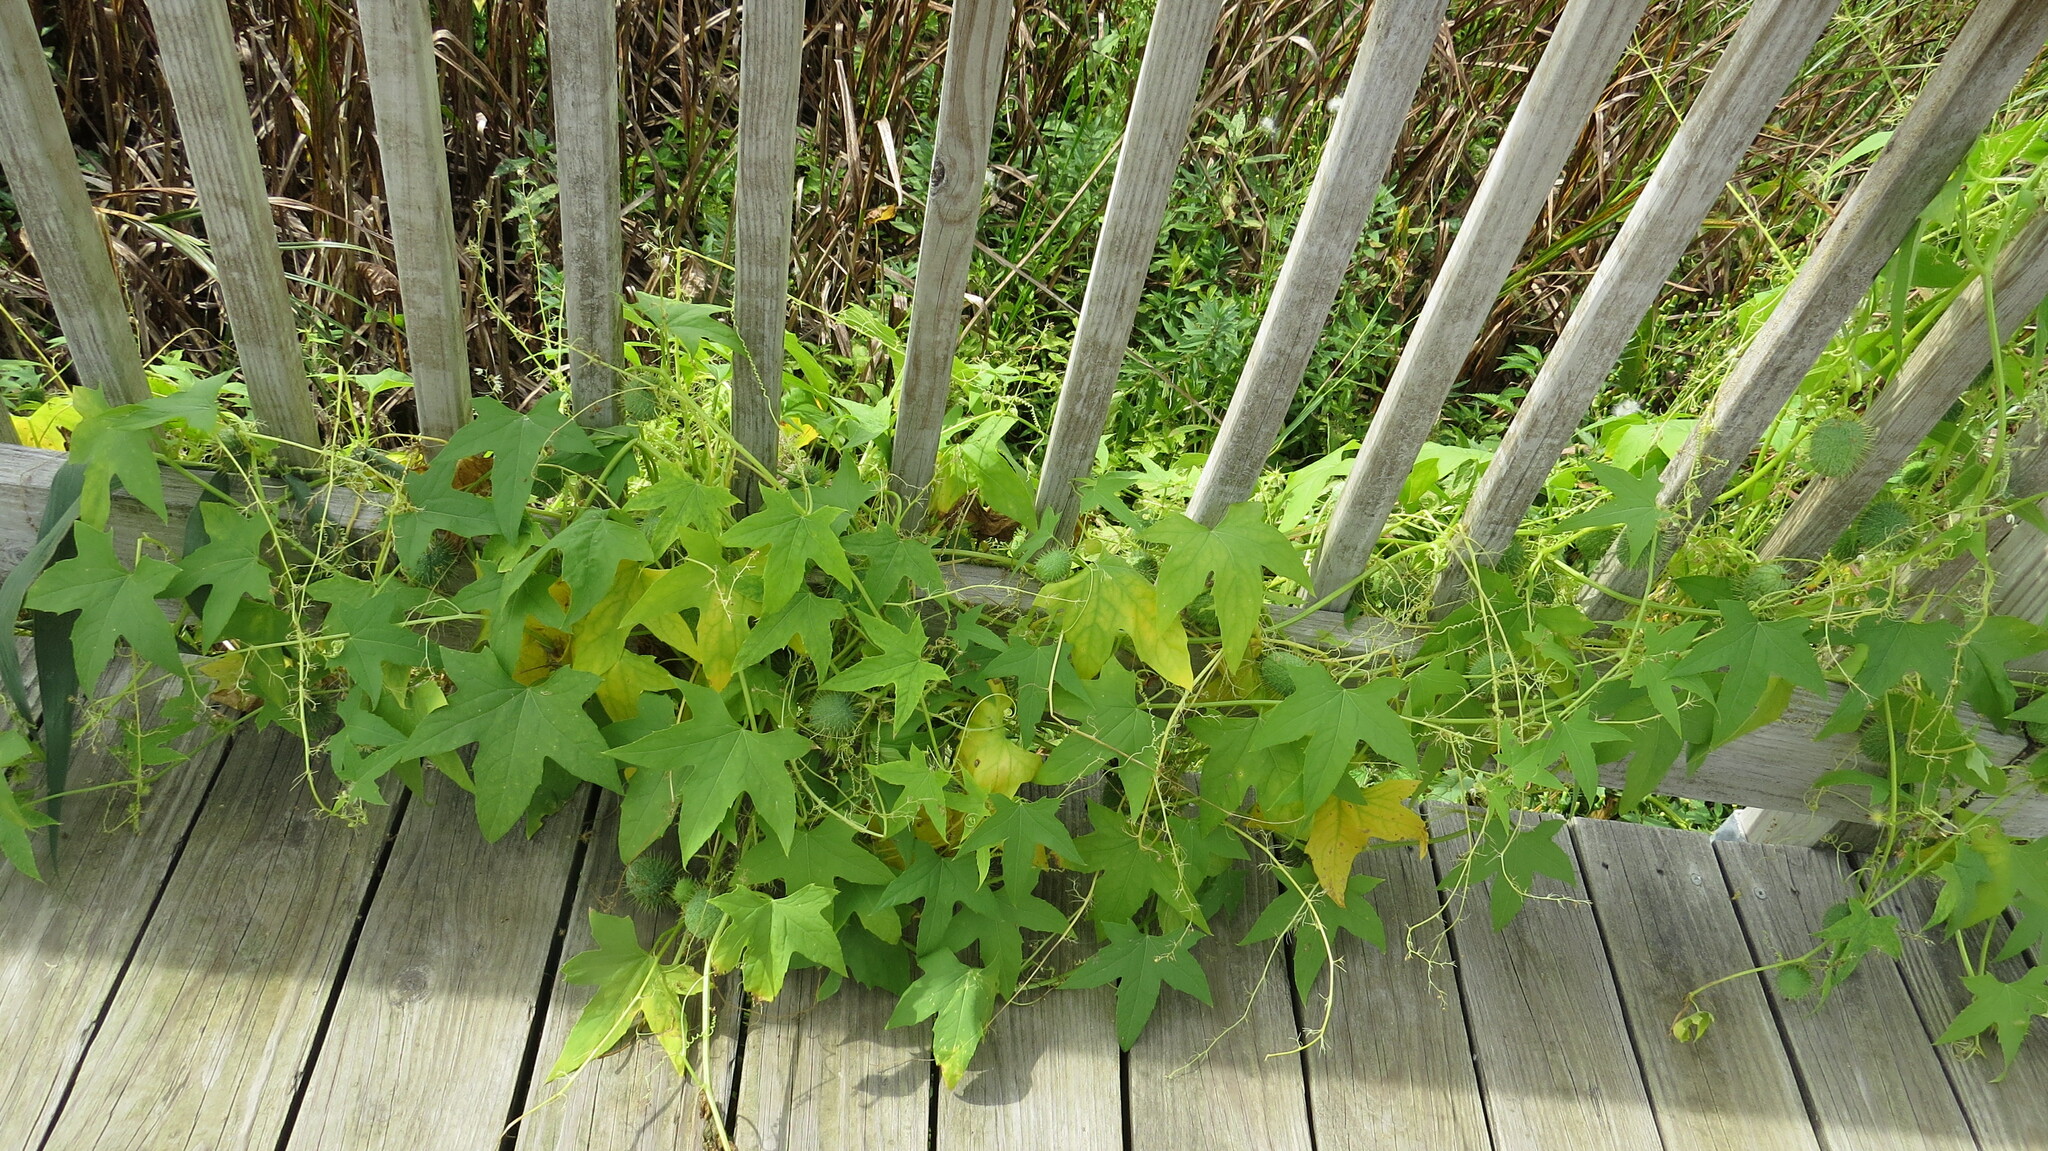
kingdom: Plantae
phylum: Tracheophyta
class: Magnoliopsida
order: Cucurbitales
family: Cucurbitaceae
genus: Echinocystis
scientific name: Echinocystis lobata
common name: Wild cucumber
